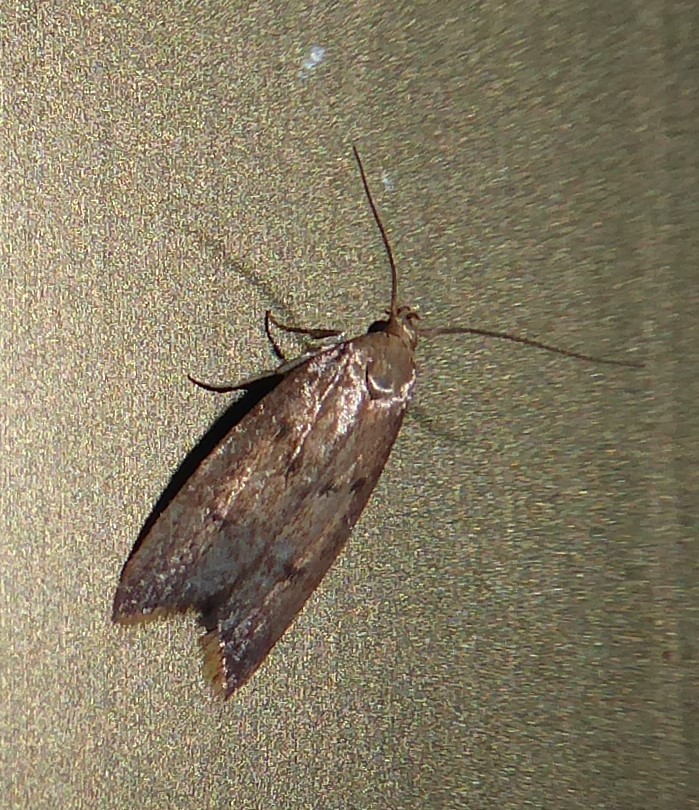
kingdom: Animalia
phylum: Arthropoda
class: Insecta
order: Lepidoptera
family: Oecophoridae
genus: Tachystola
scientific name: Tachystola acroxantha
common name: Ruddy streak
